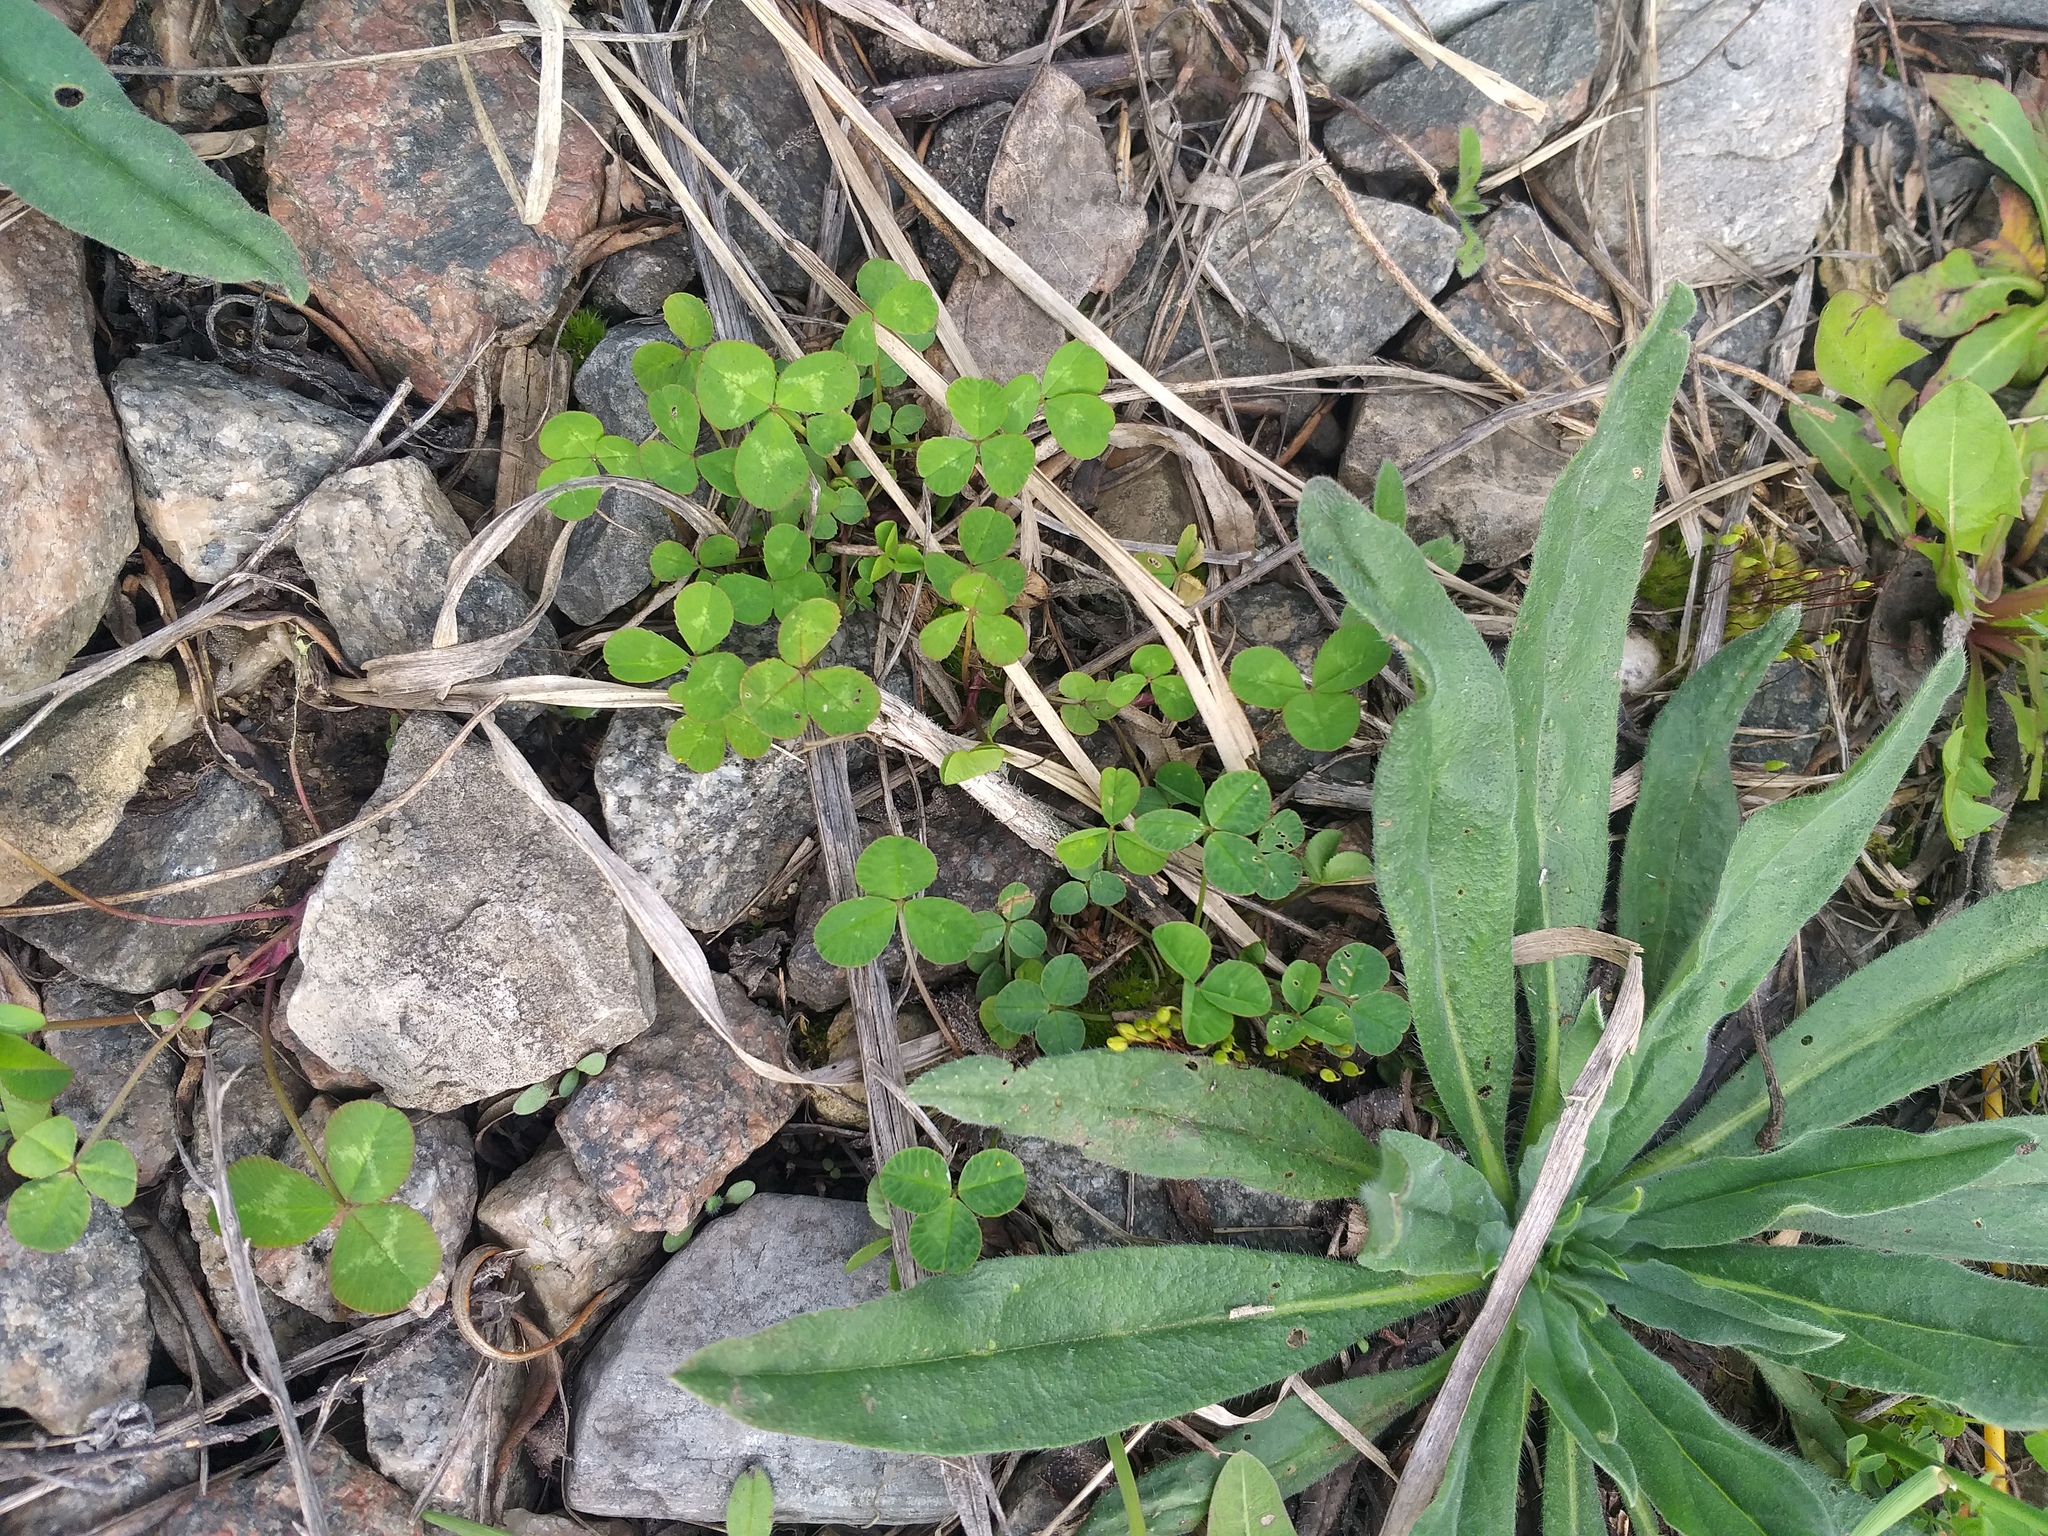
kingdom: Plantae
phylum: Tracheophyta
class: Magnoliopsida
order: Fabales
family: Fabaceae
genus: Trifolium
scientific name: Trifolium repens
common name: White clover
